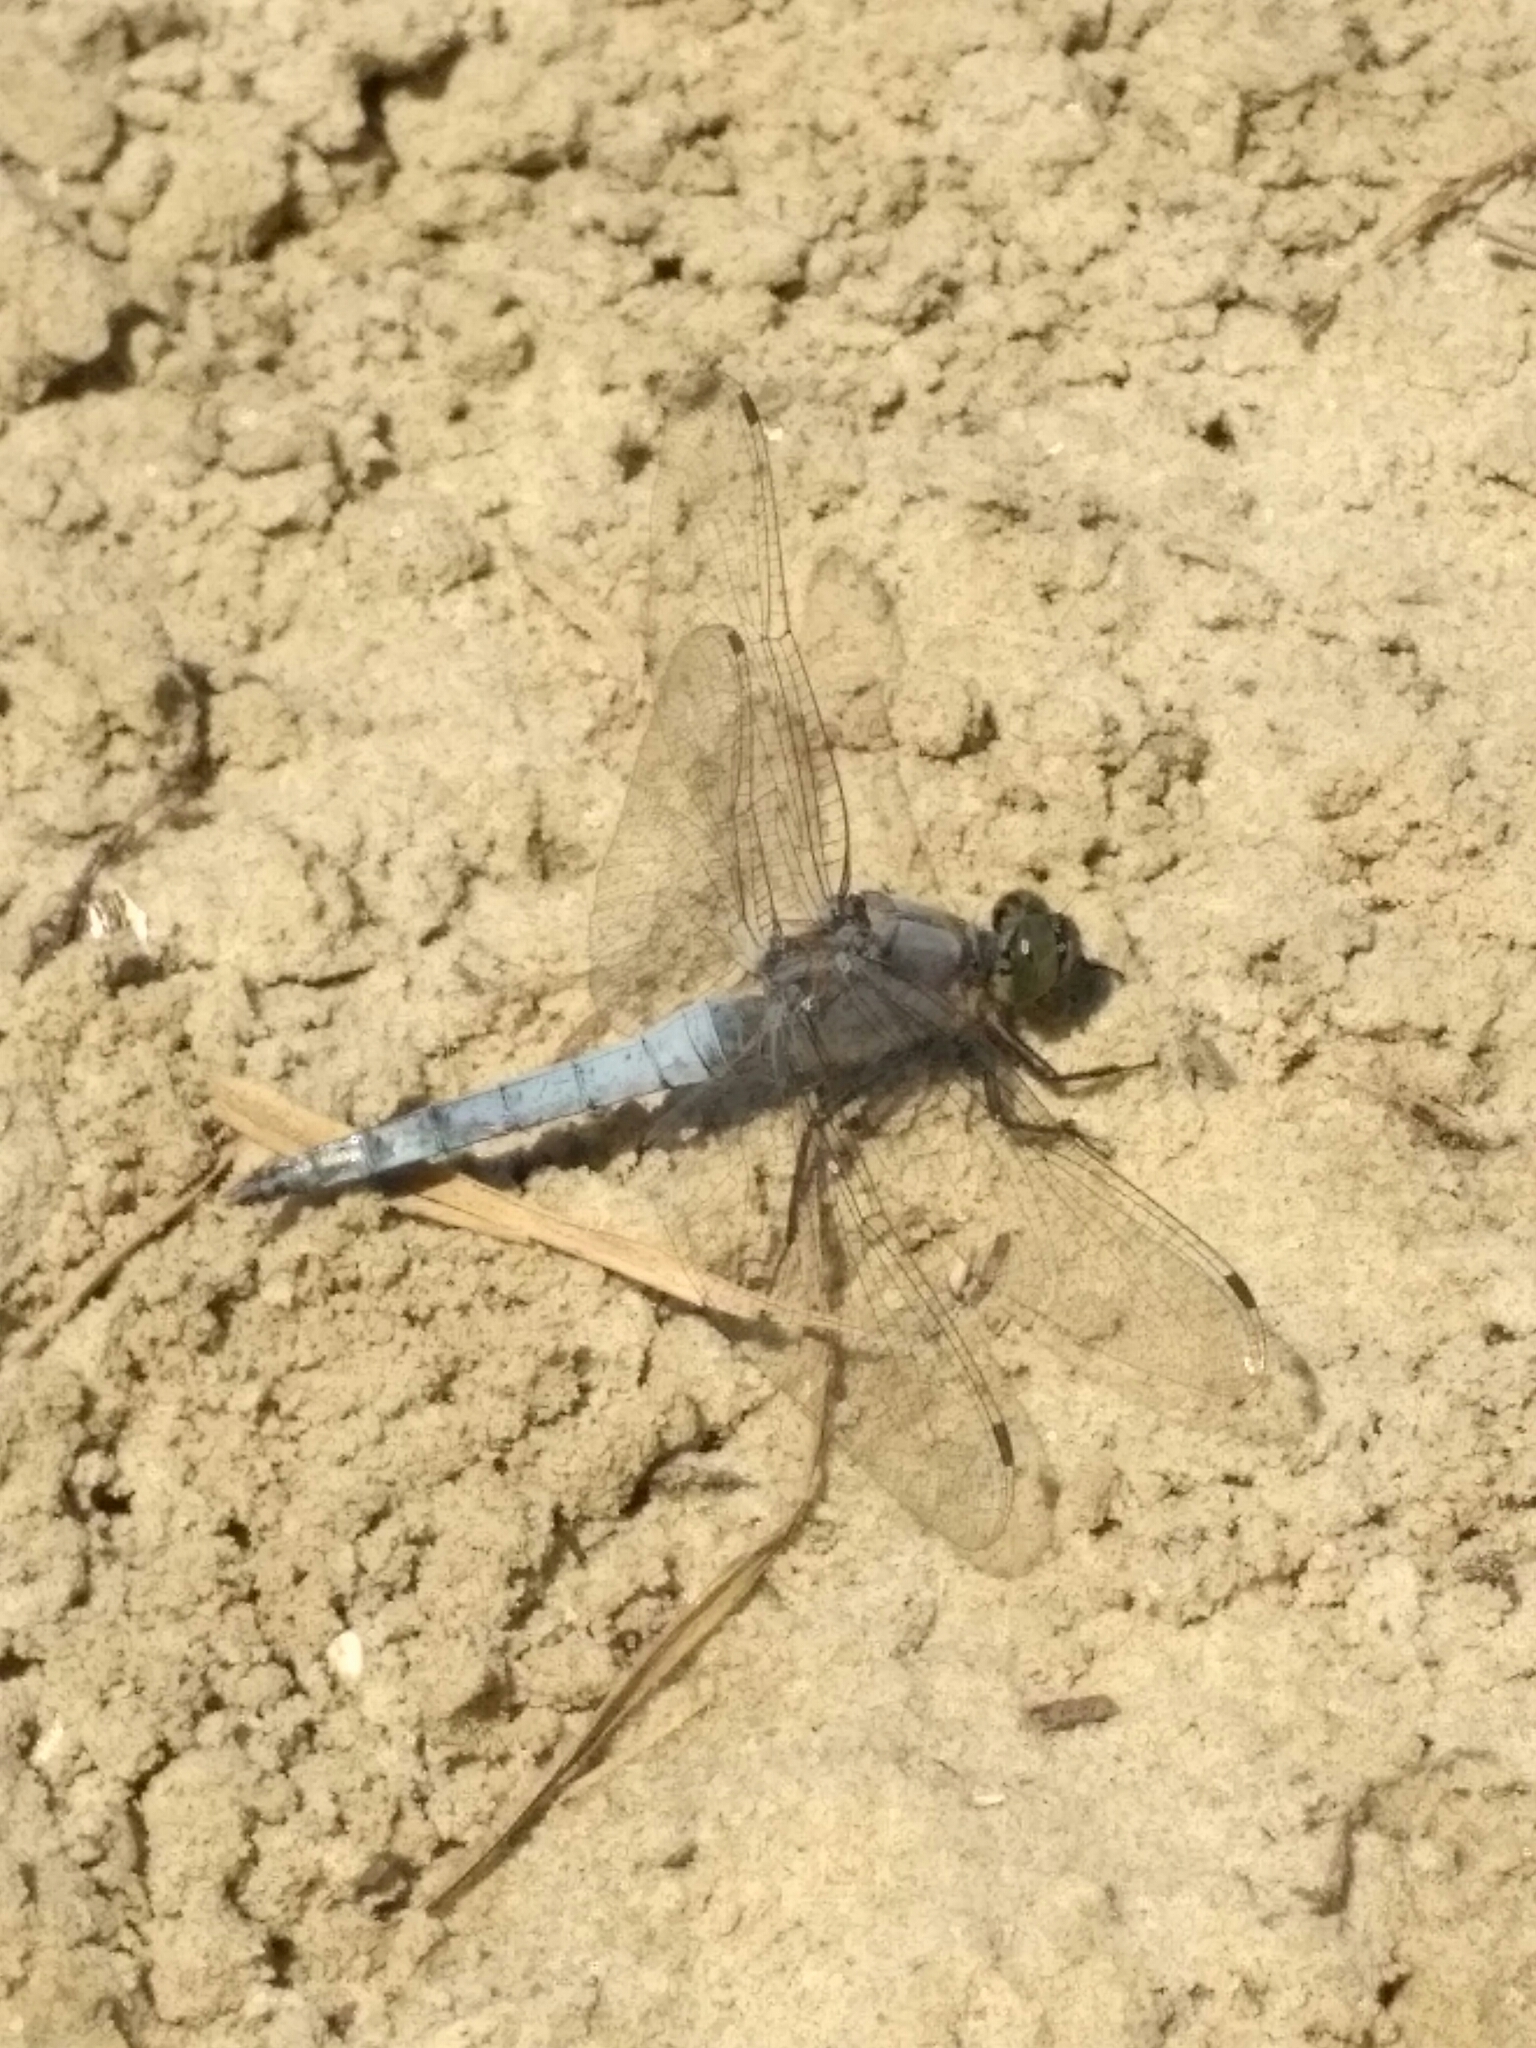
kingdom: Animalia
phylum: Arthropoda
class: Insecta
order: Odonata
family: Libellulidae
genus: Orthetrum
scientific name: Orthetrum cancellatum
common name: Black-tailed skimmer
